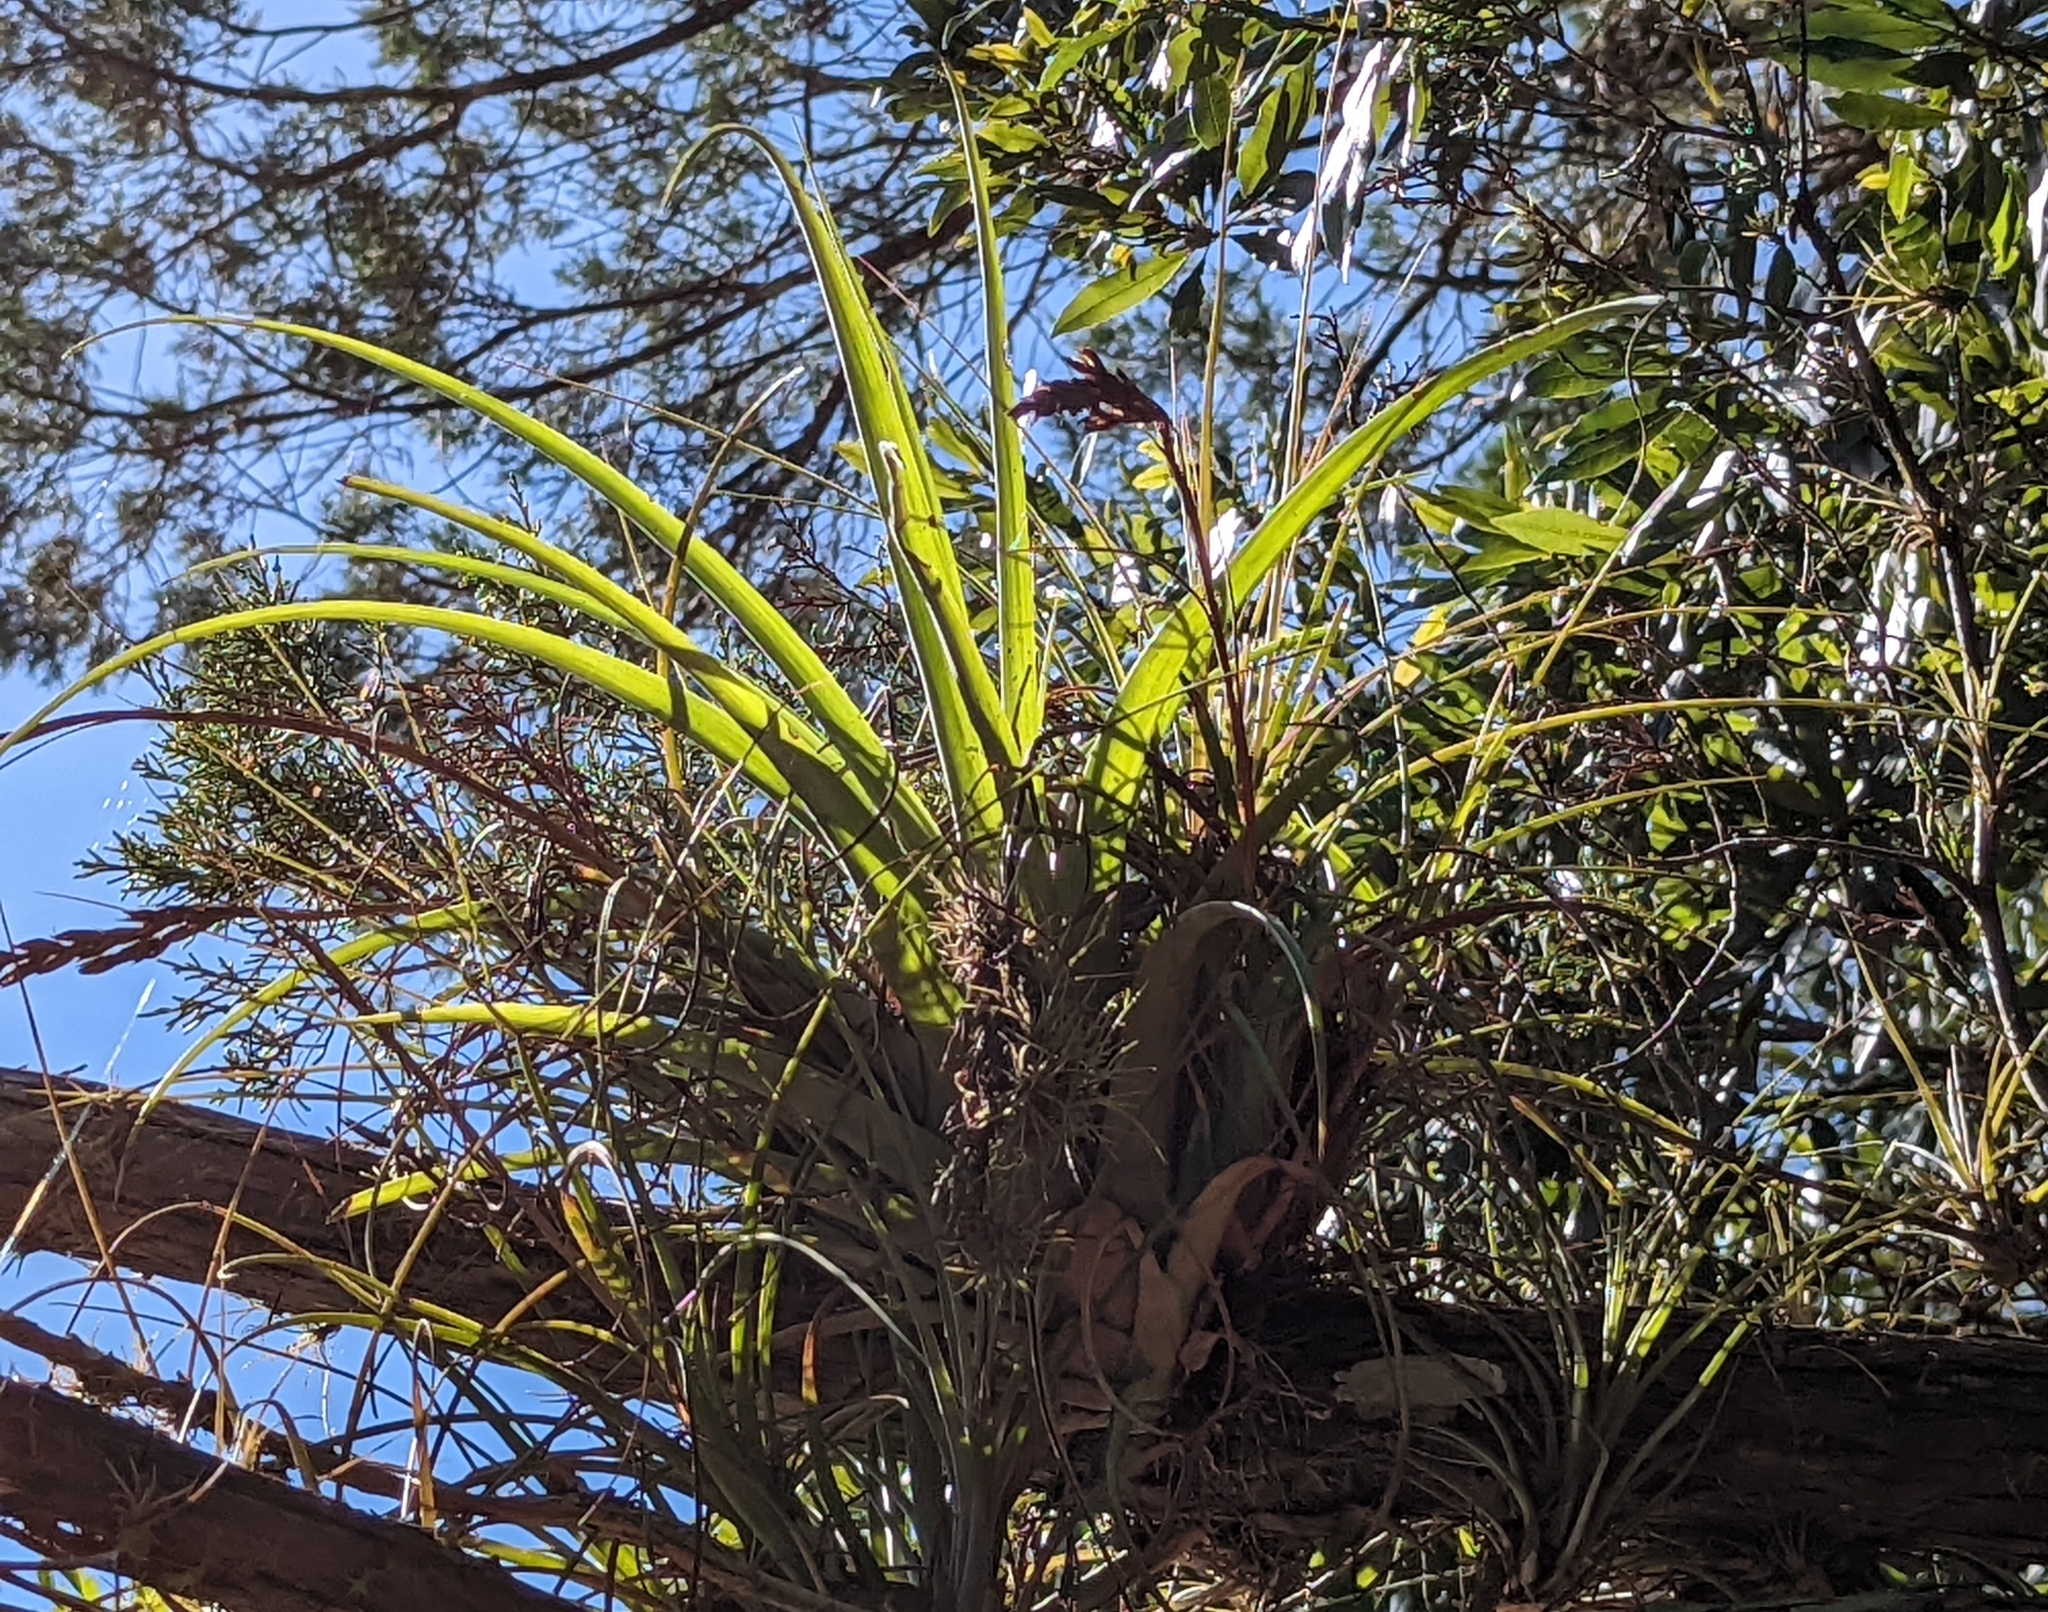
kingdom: Plantae
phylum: Tracheophyta
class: Liliopsida
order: Poales
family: Bromeliaceae
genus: Tillandsia
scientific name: Tillandsia utriculata
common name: Wild pine
